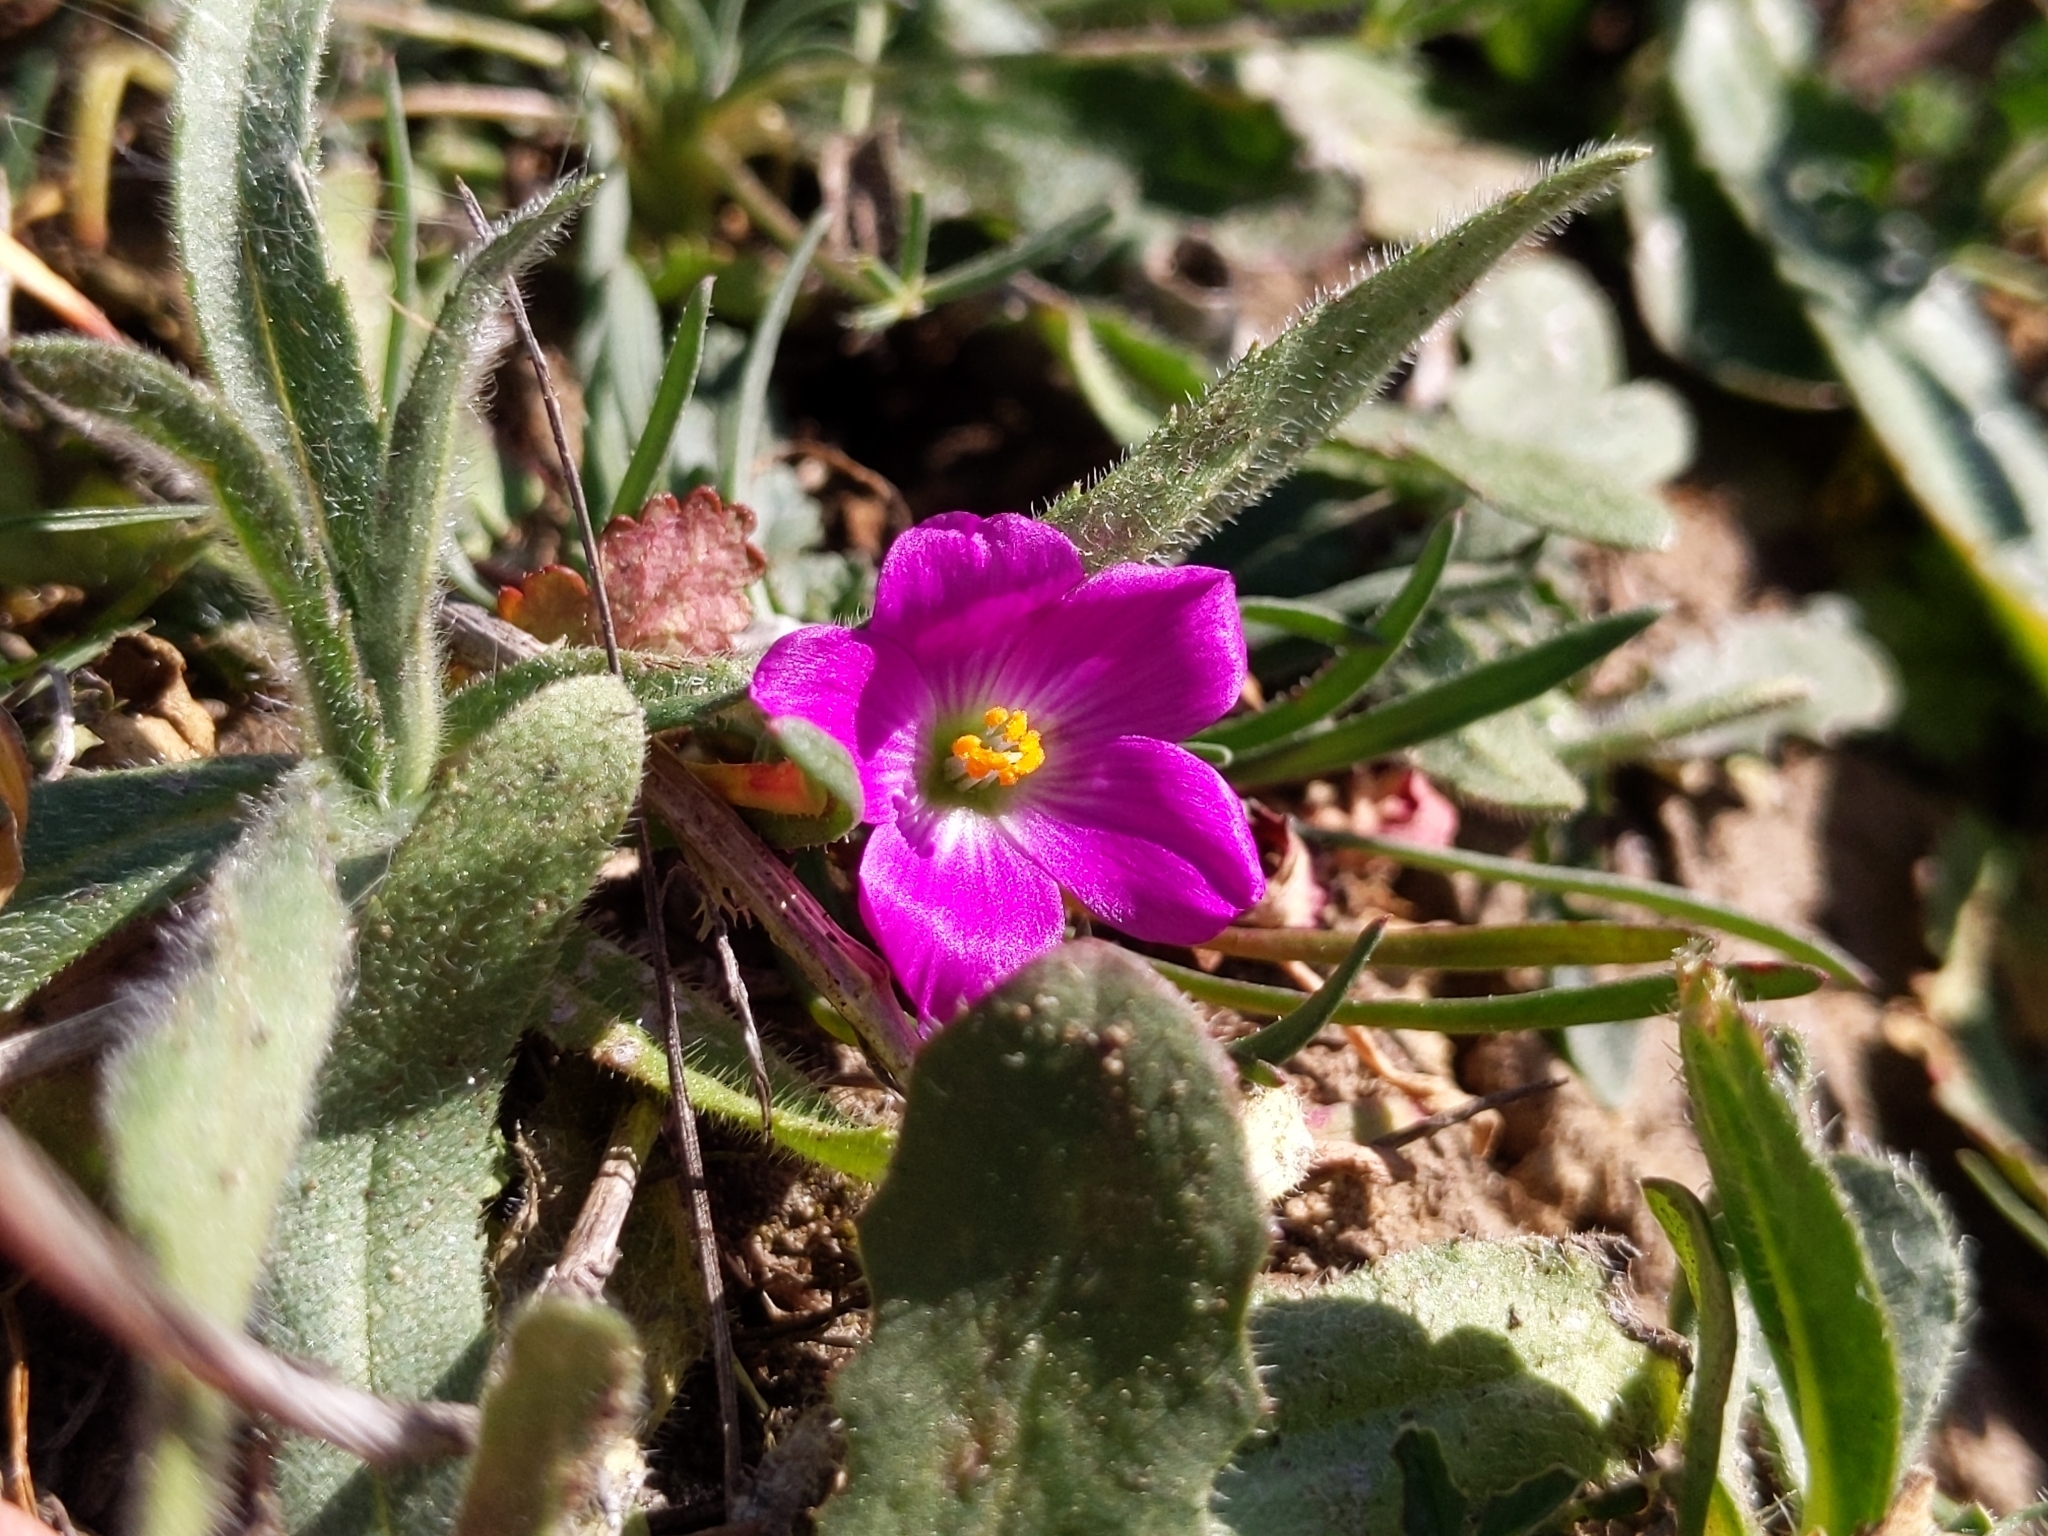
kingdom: Plantae
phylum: Tracheophyta
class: Magnoliopsida
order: Caryophyllales
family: Montiaceae
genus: Calandrinia
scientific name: Calandrinia menziesii
